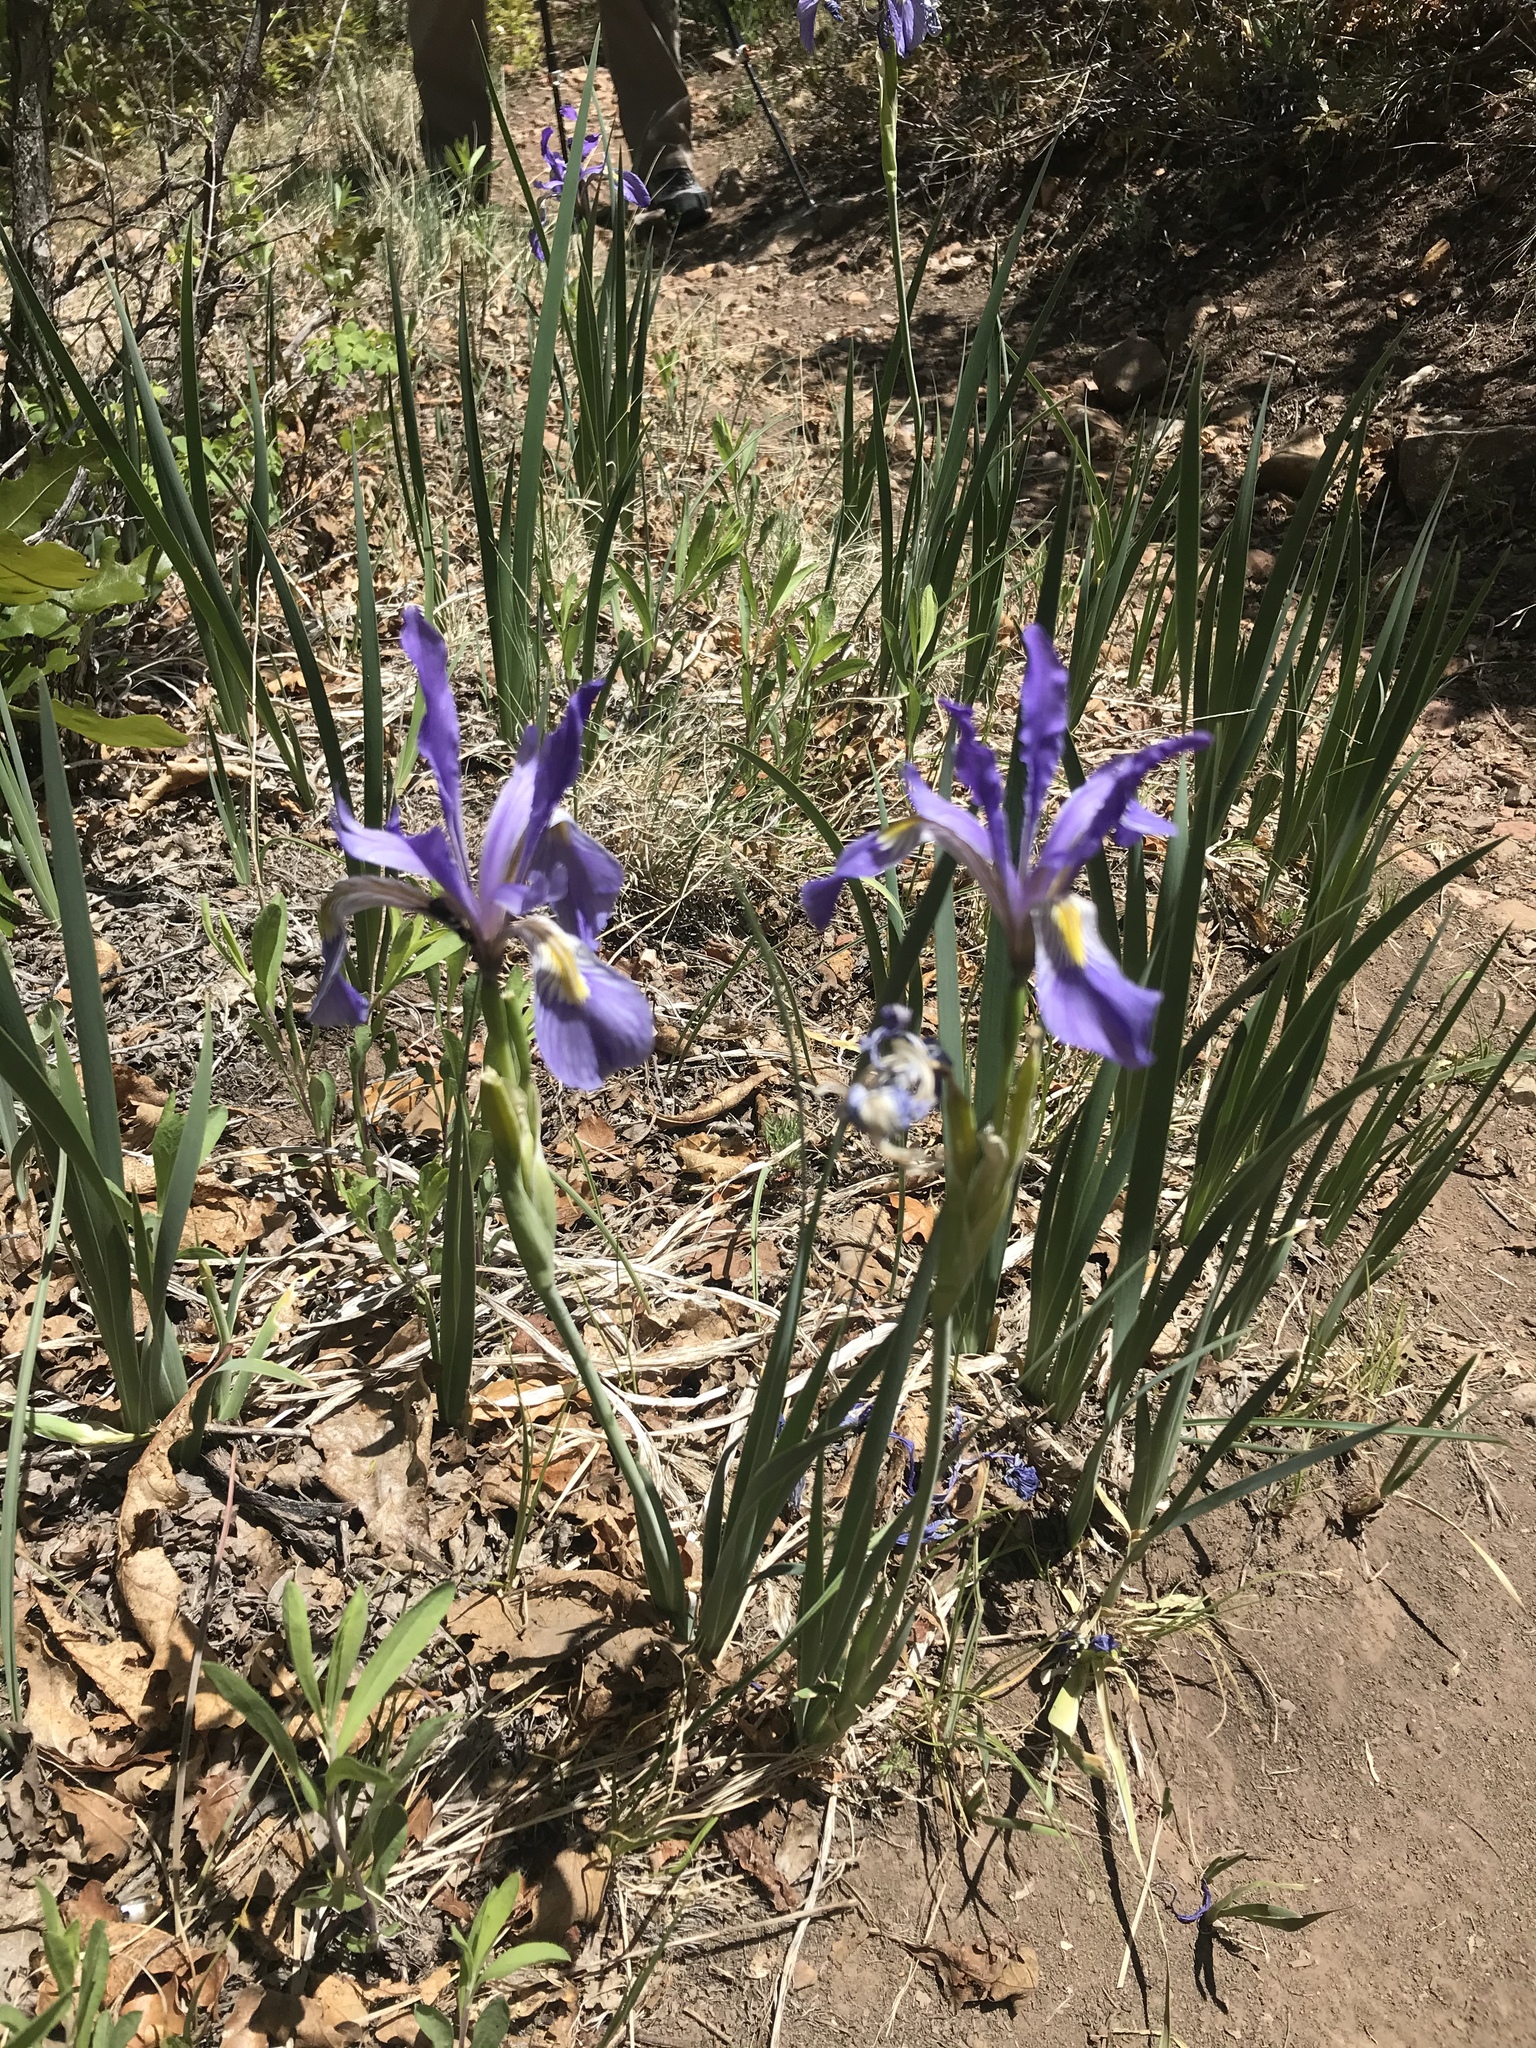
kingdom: Plantae
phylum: Tracheophyta
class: Liliopsida
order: Asparagales
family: Iridaceae
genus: Iris
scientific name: Iris missouriensis
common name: Rocky mountain iris
